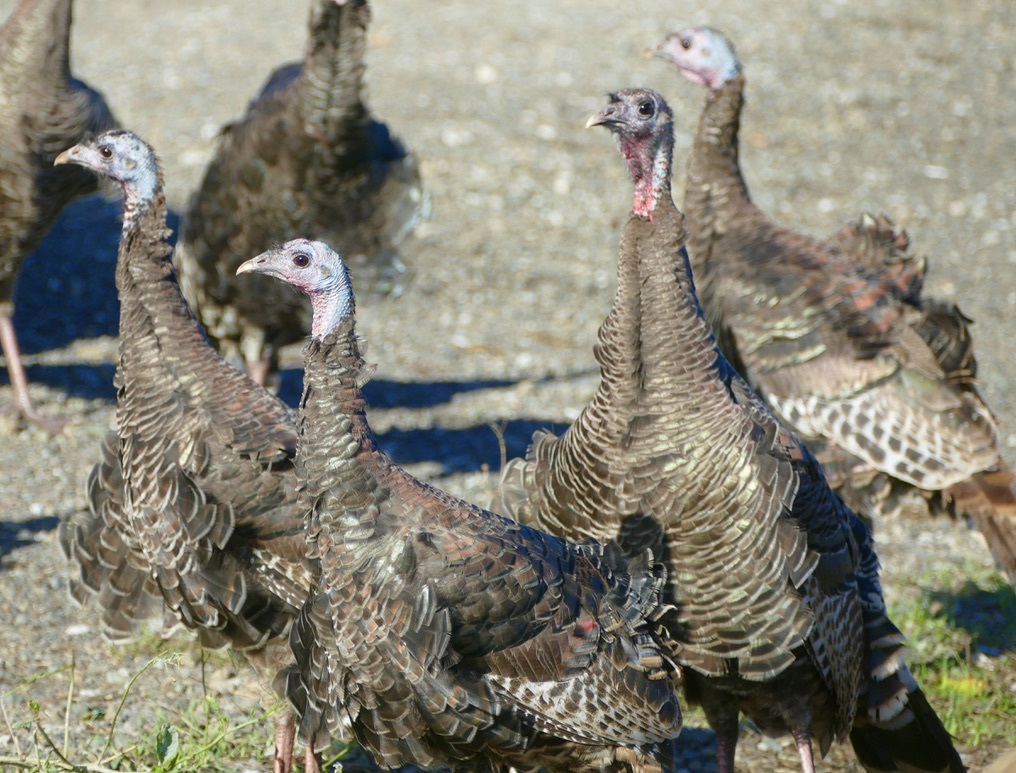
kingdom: Animalia
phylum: Chordata
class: Aves
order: Galliformes
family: Phasianidae
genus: Meleagris
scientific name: Meleagris gallopavo
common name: Wild turkey
